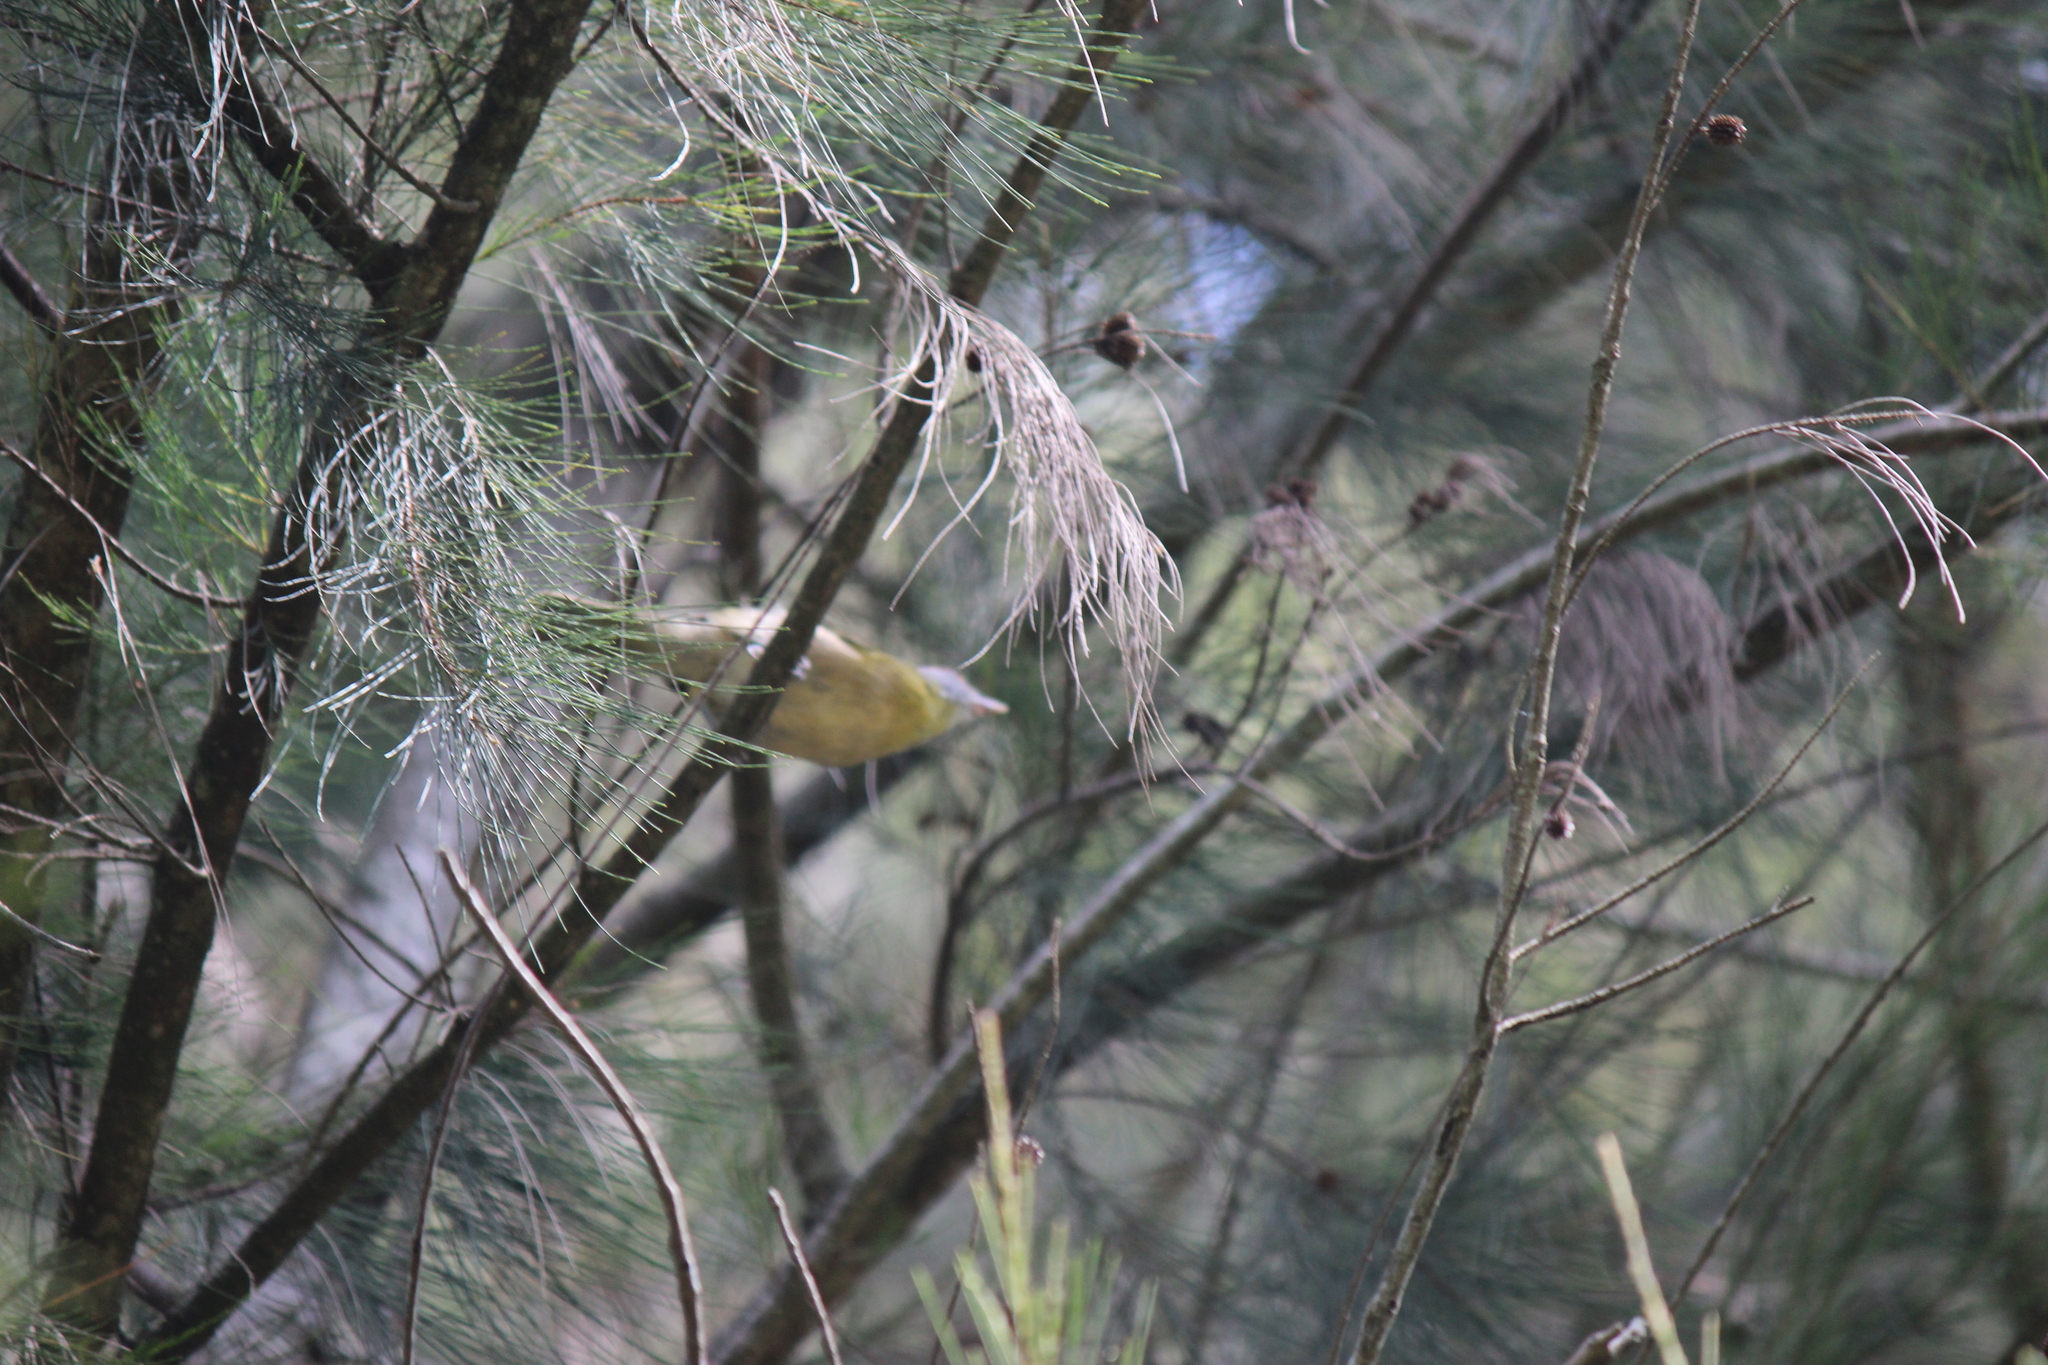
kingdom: Animalia
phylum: Chordata
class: Aves
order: Passeriformes
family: Vireonidae
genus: Cyclarhis
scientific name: Cyclarhis gujanensis
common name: Rufous-browed peppershrike
